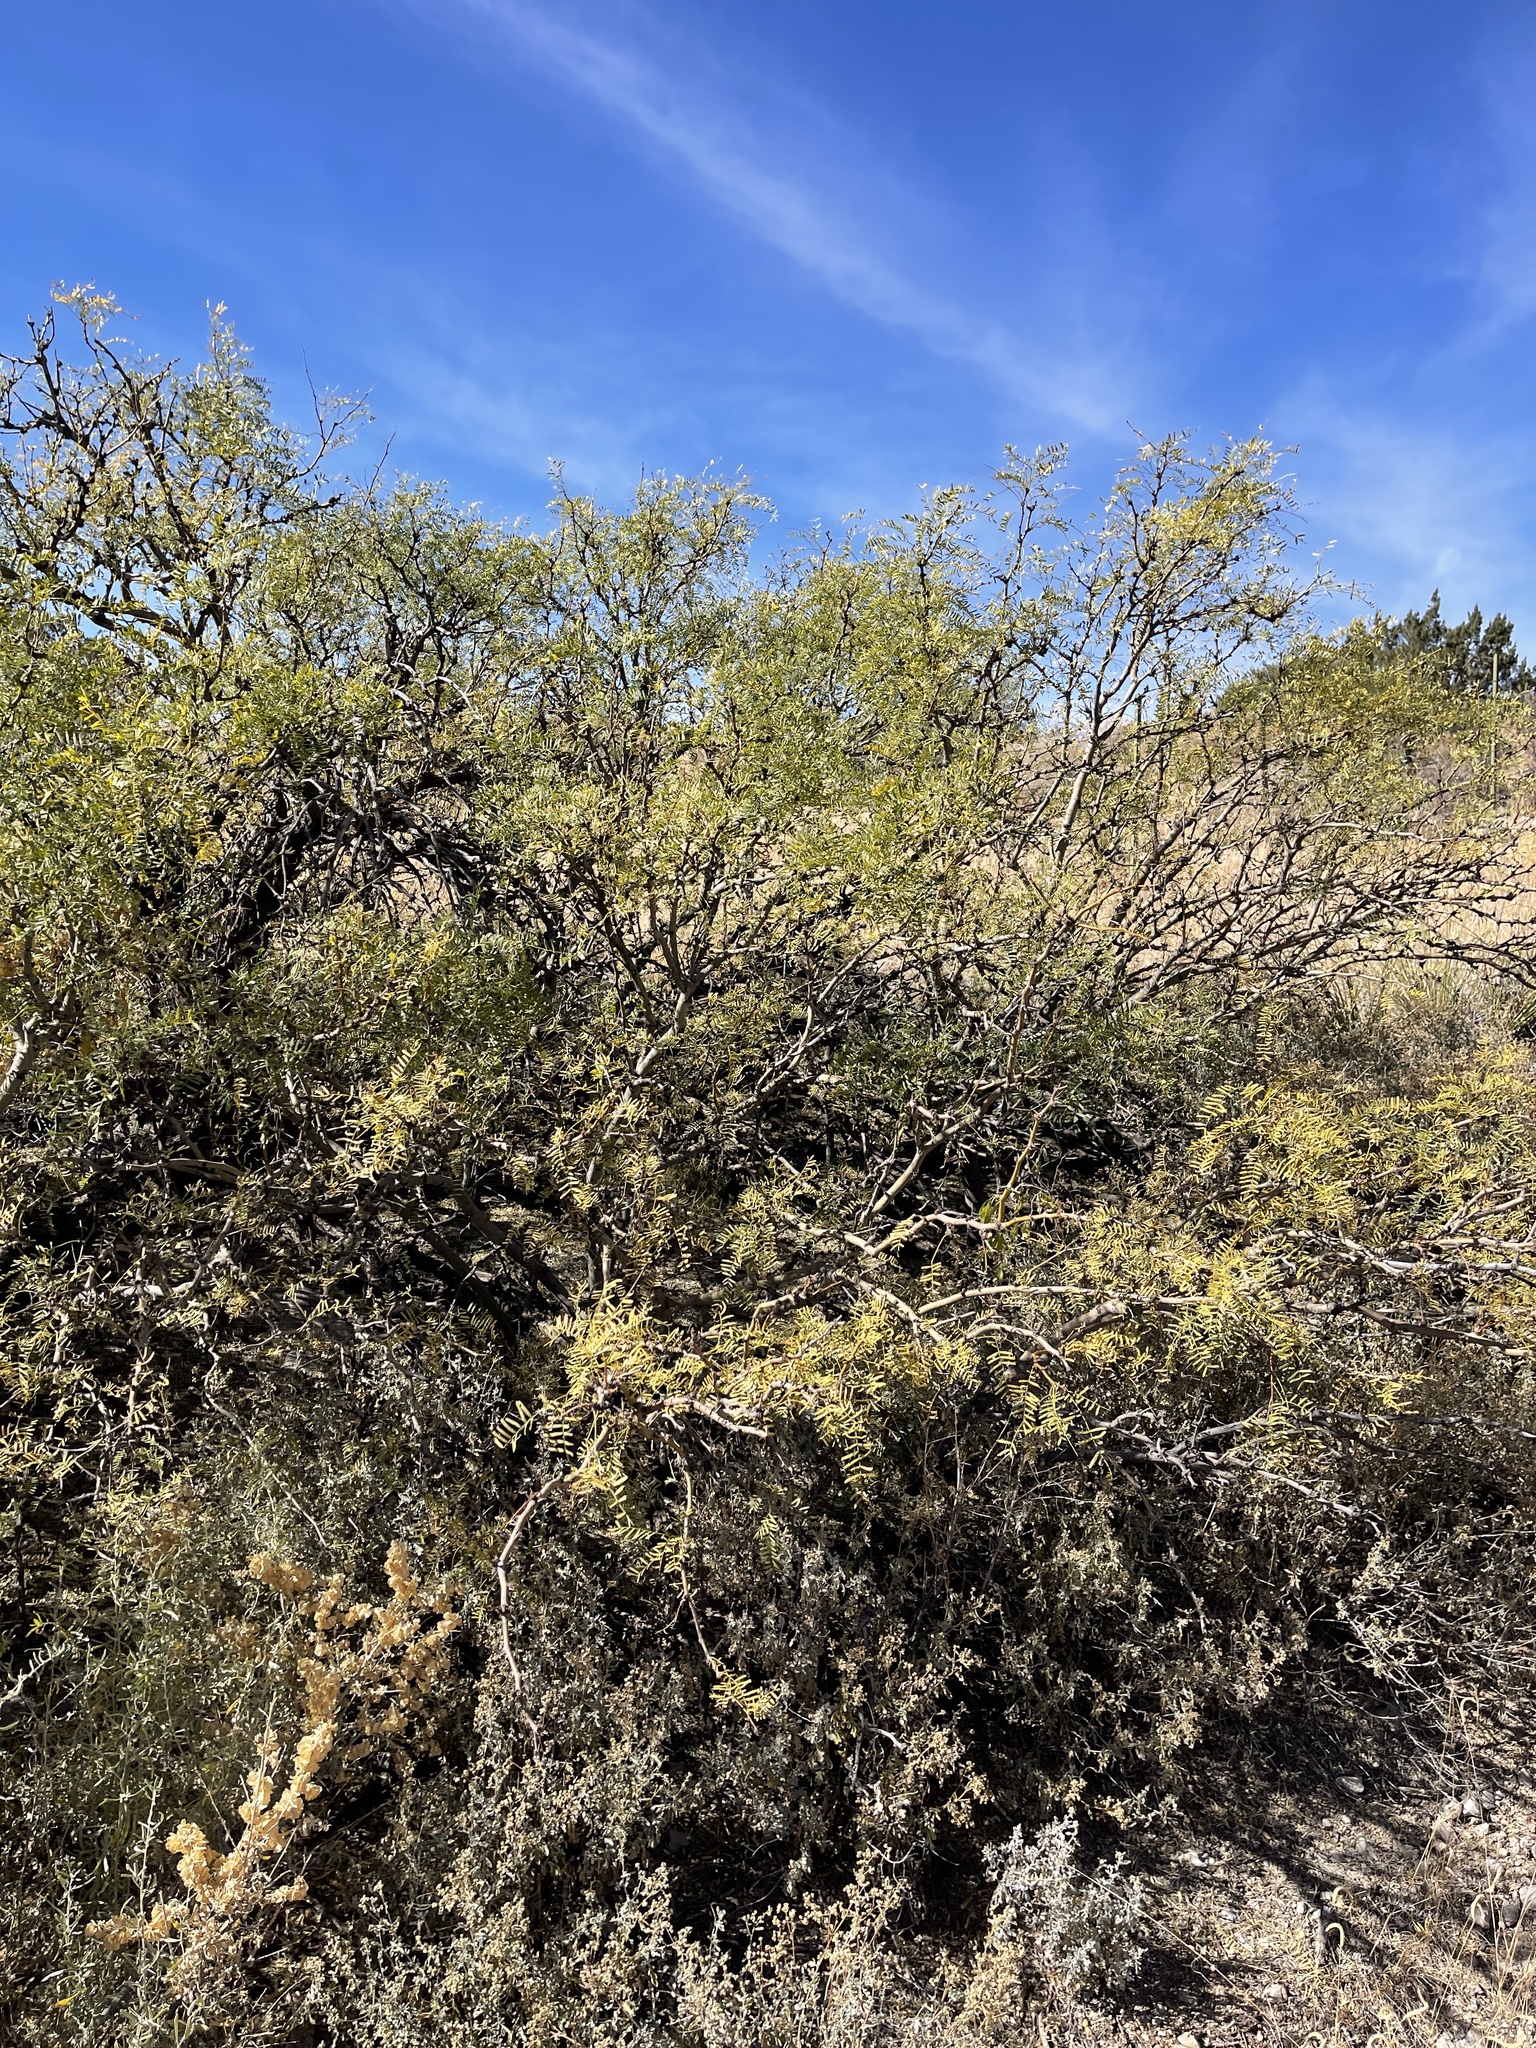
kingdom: Plantae
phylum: Tracheophyta
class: Magnoliopsida
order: Fabales
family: Fabaceae
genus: Prosopis
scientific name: Prosopis glandulosa
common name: Honey mesquite
